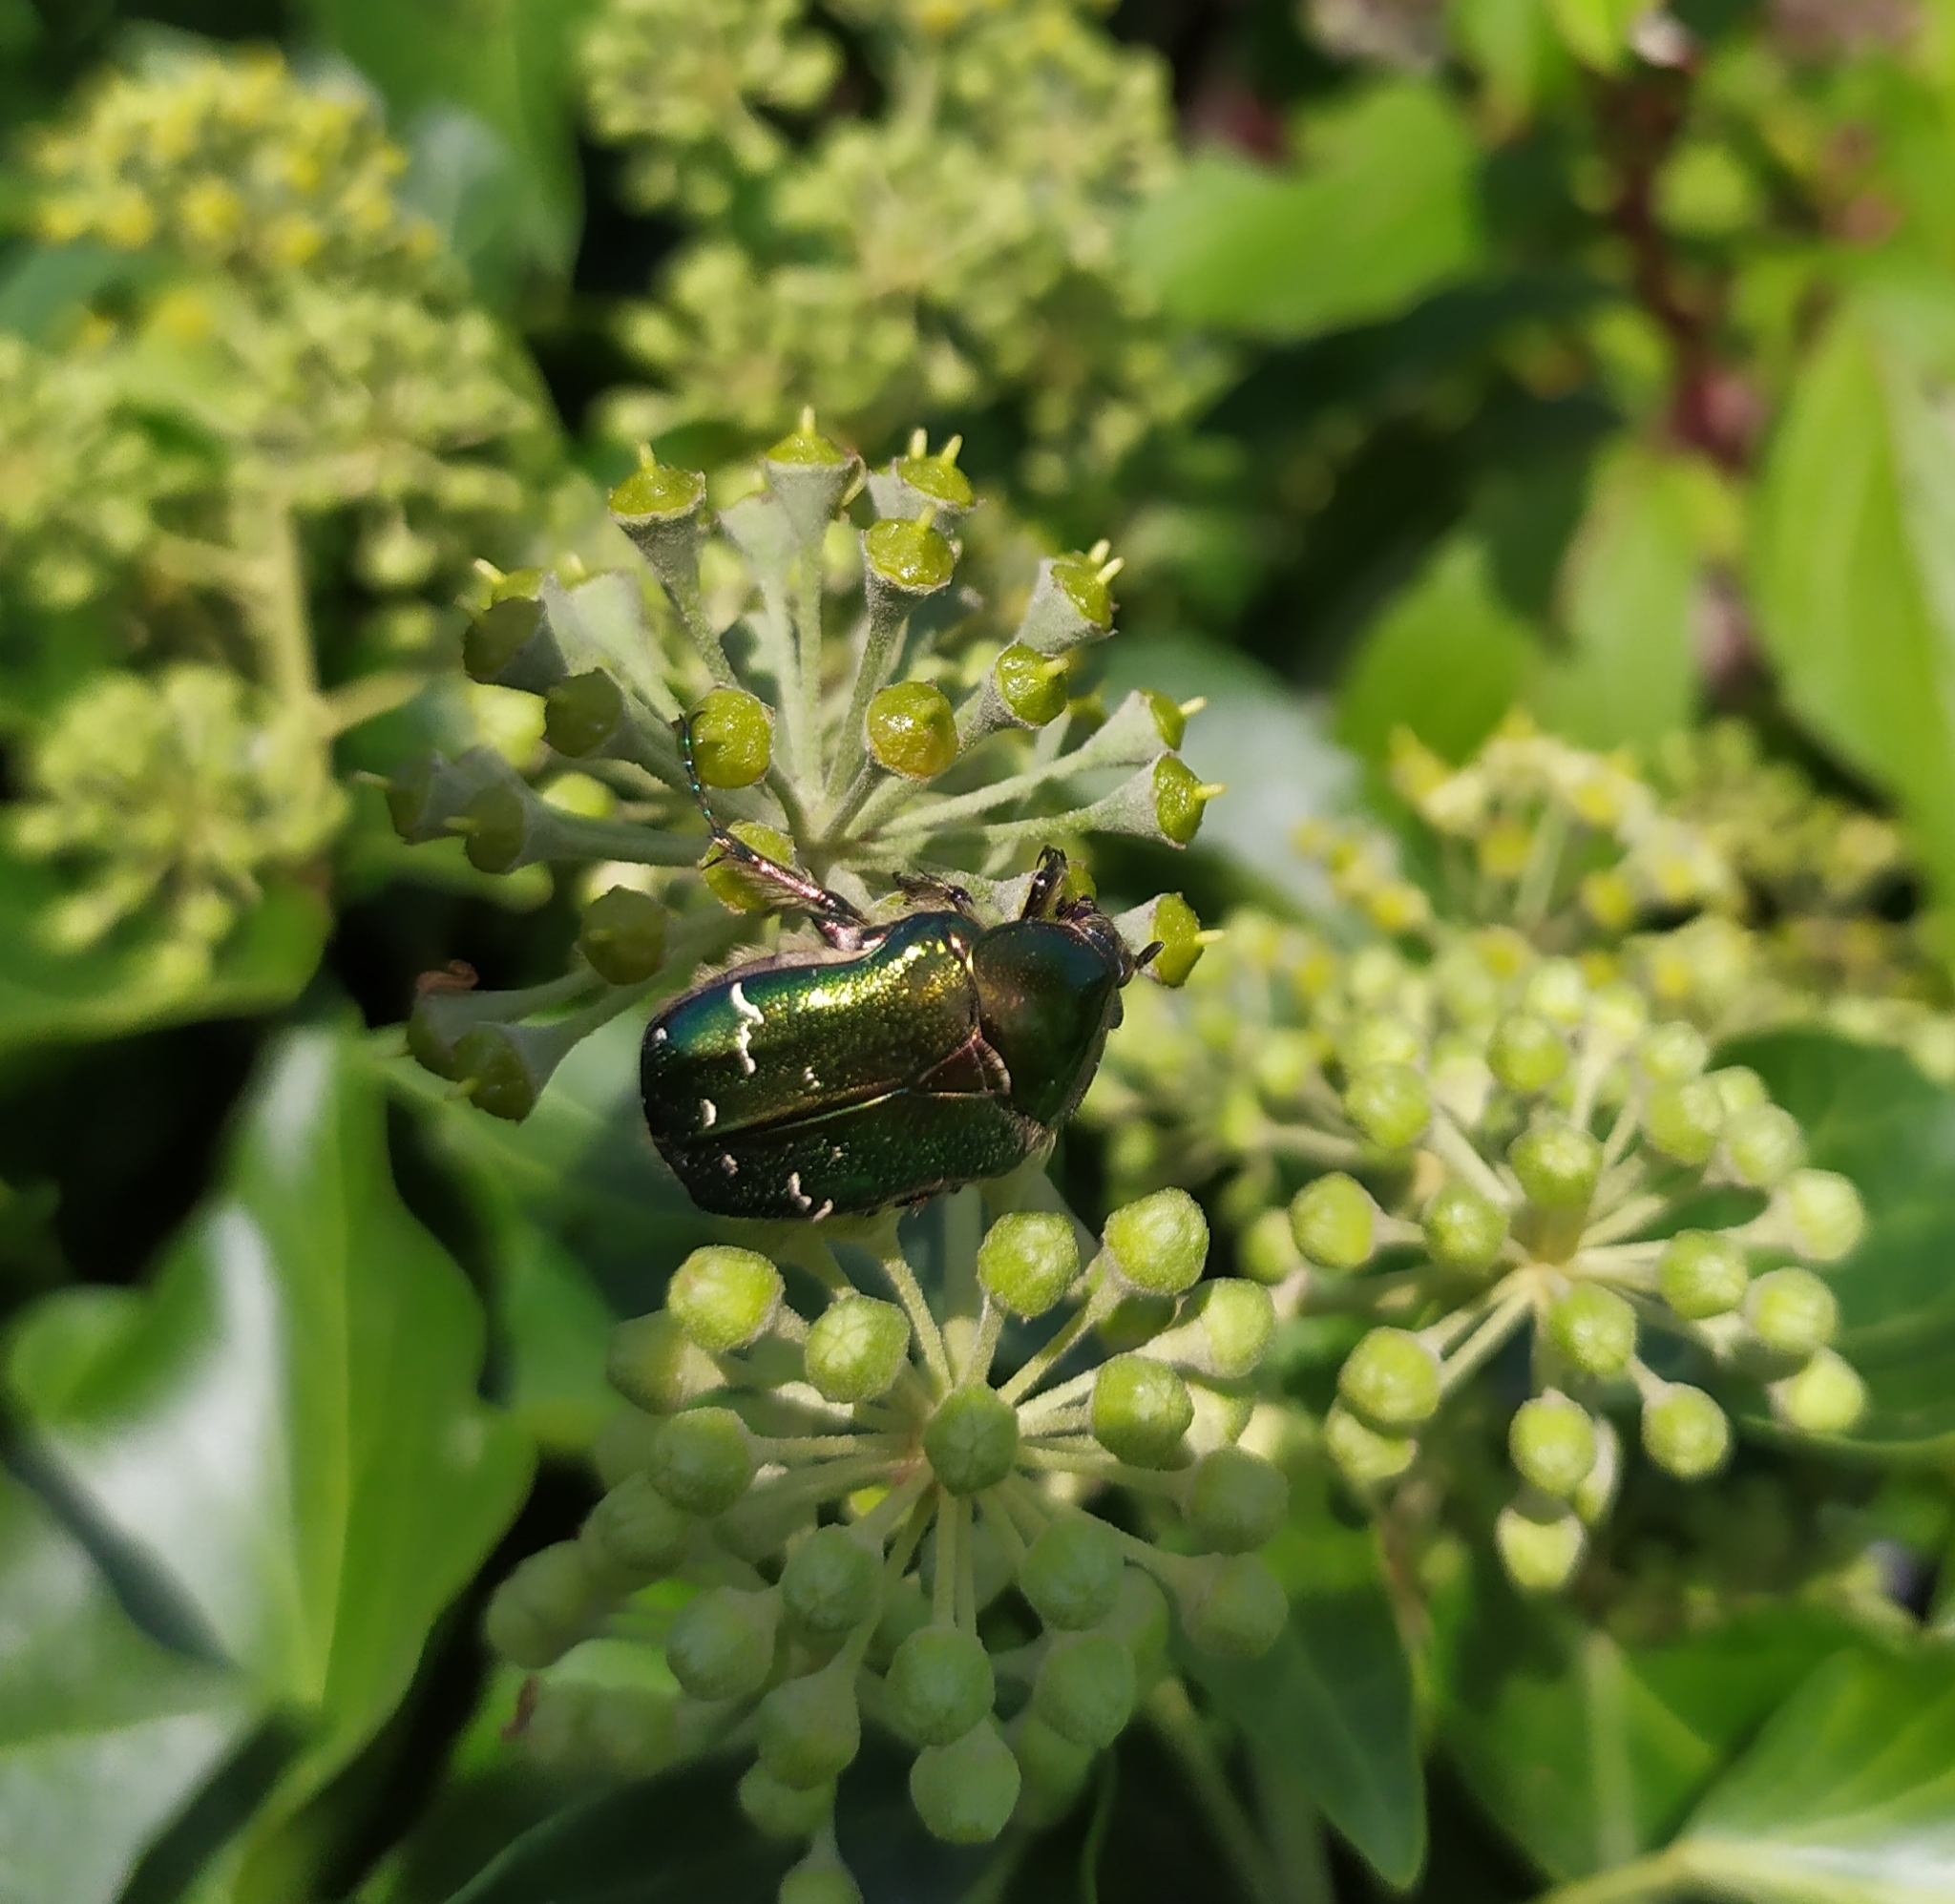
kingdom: Animalia
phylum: Arthropoda
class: Insecta
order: Coleoptera
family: Scarabaeidae
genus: Cetonia
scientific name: Cetonia aurata
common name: Rose chafer
